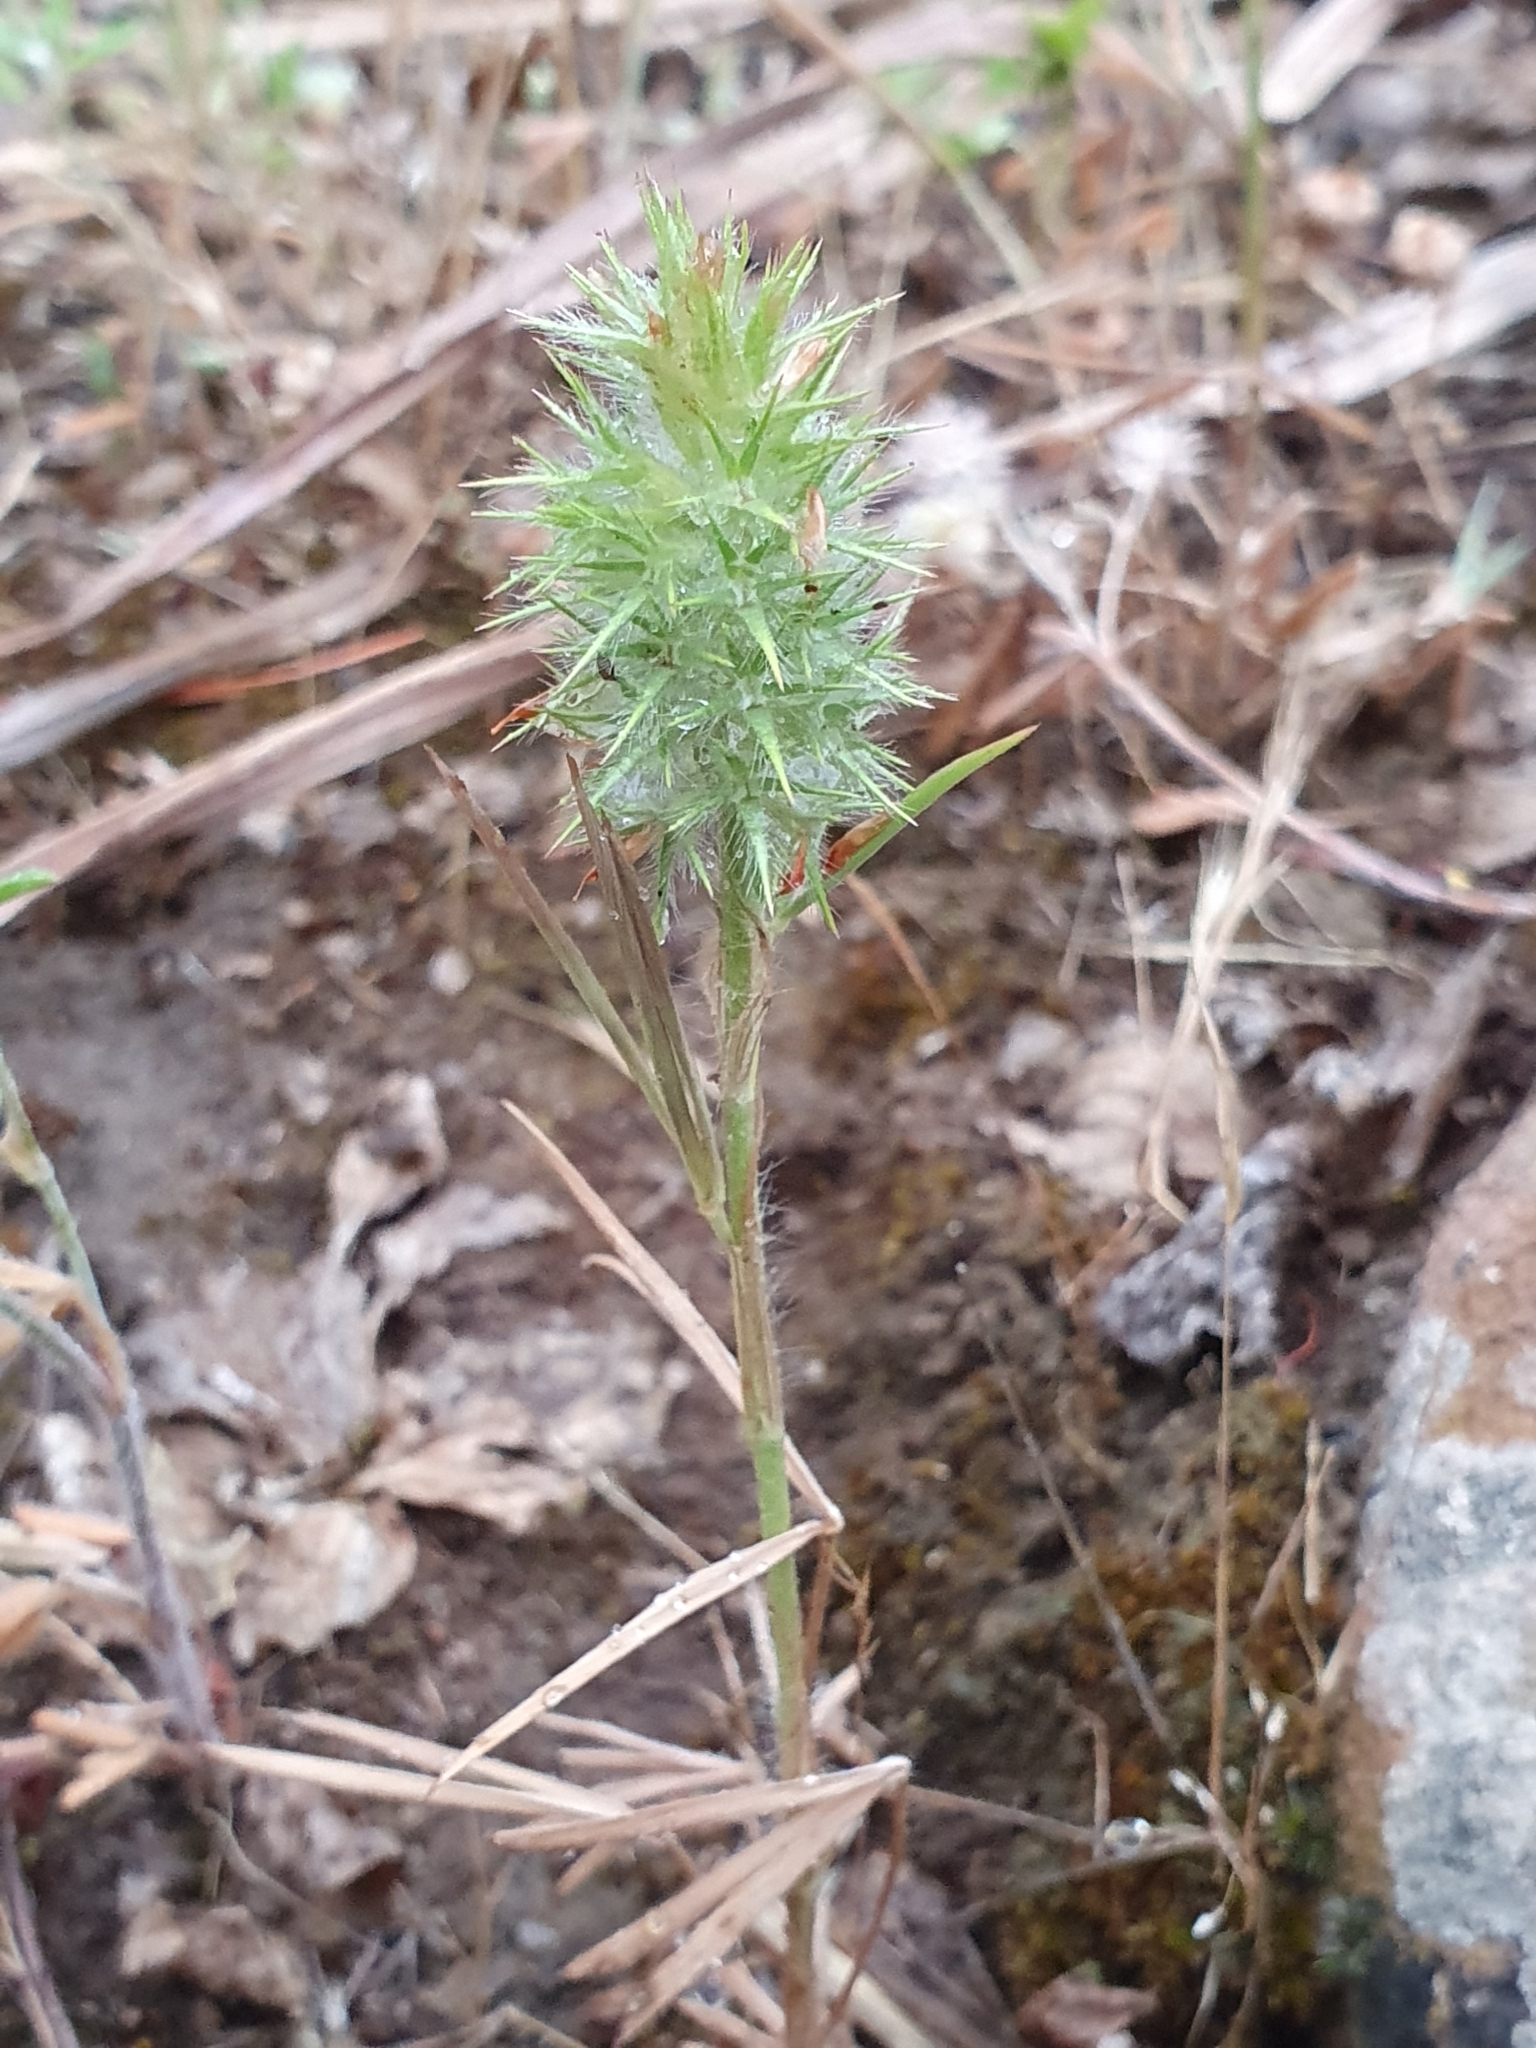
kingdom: Plantae
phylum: Tracheophyta
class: Magnoliopsida
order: Fabales
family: Fabaceae
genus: Trifolium
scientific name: Trifolium angustifolium
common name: Narrow clover
